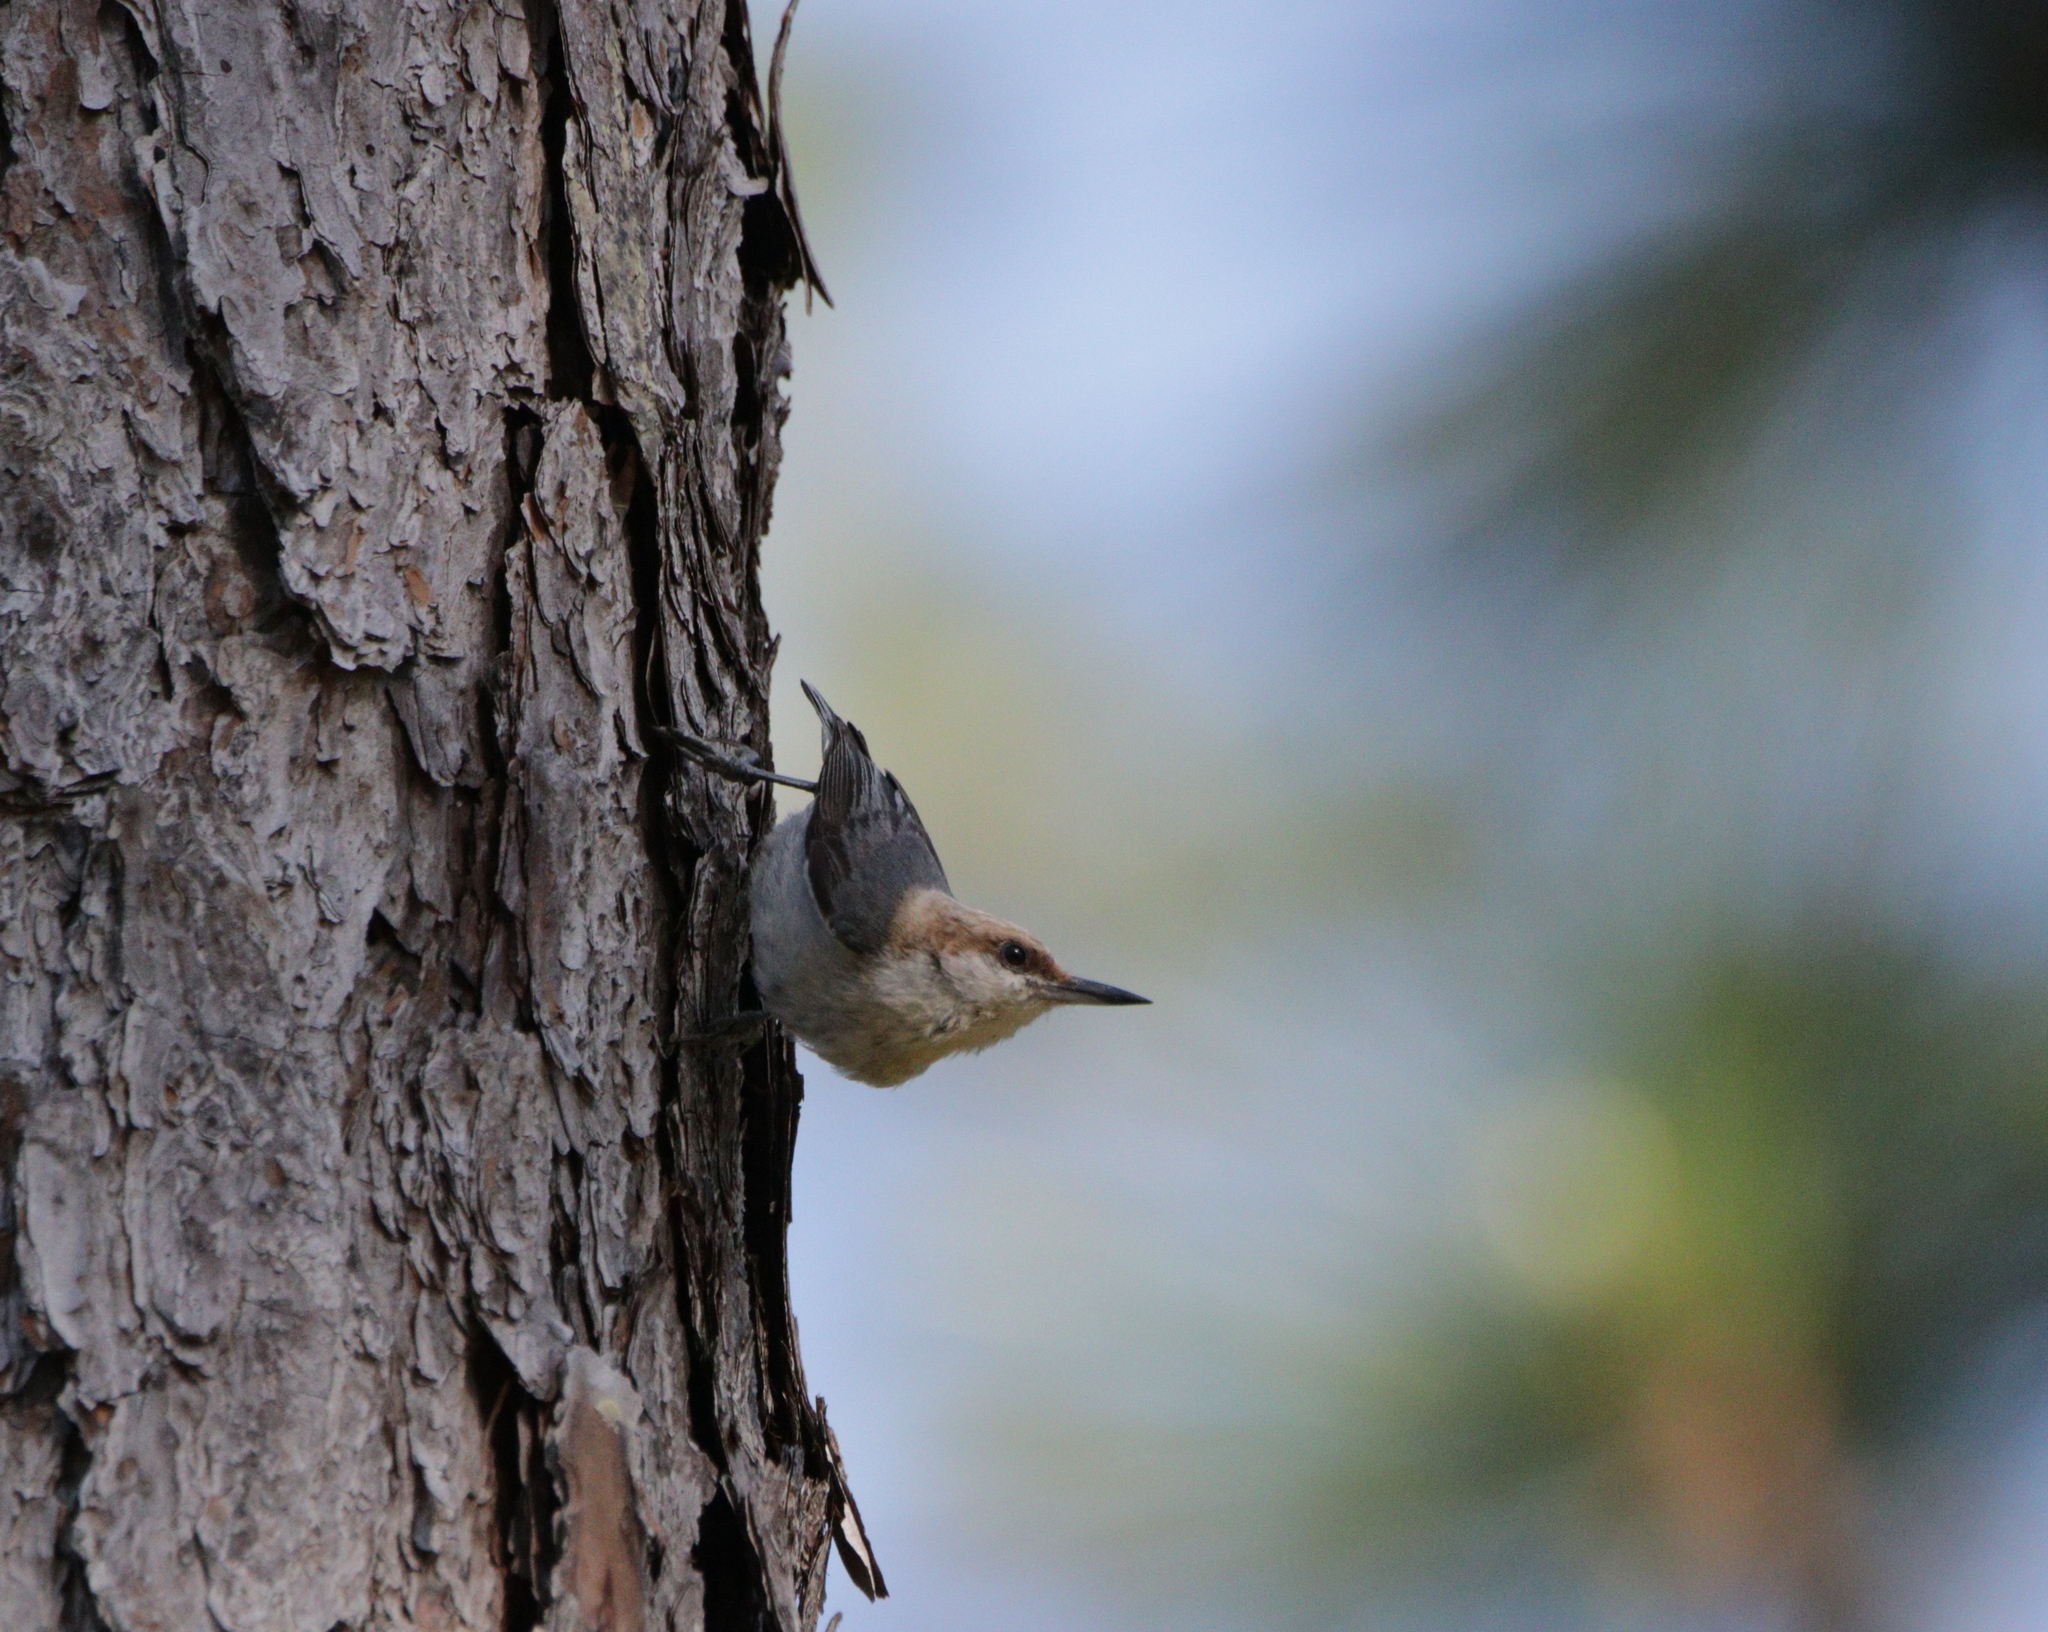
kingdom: Animalia
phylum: Chordata
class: Aves
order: Passeriformes
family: Sittidae
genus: Sitta
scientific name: Sitta pusilla
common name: Brown-headed nuthatch
